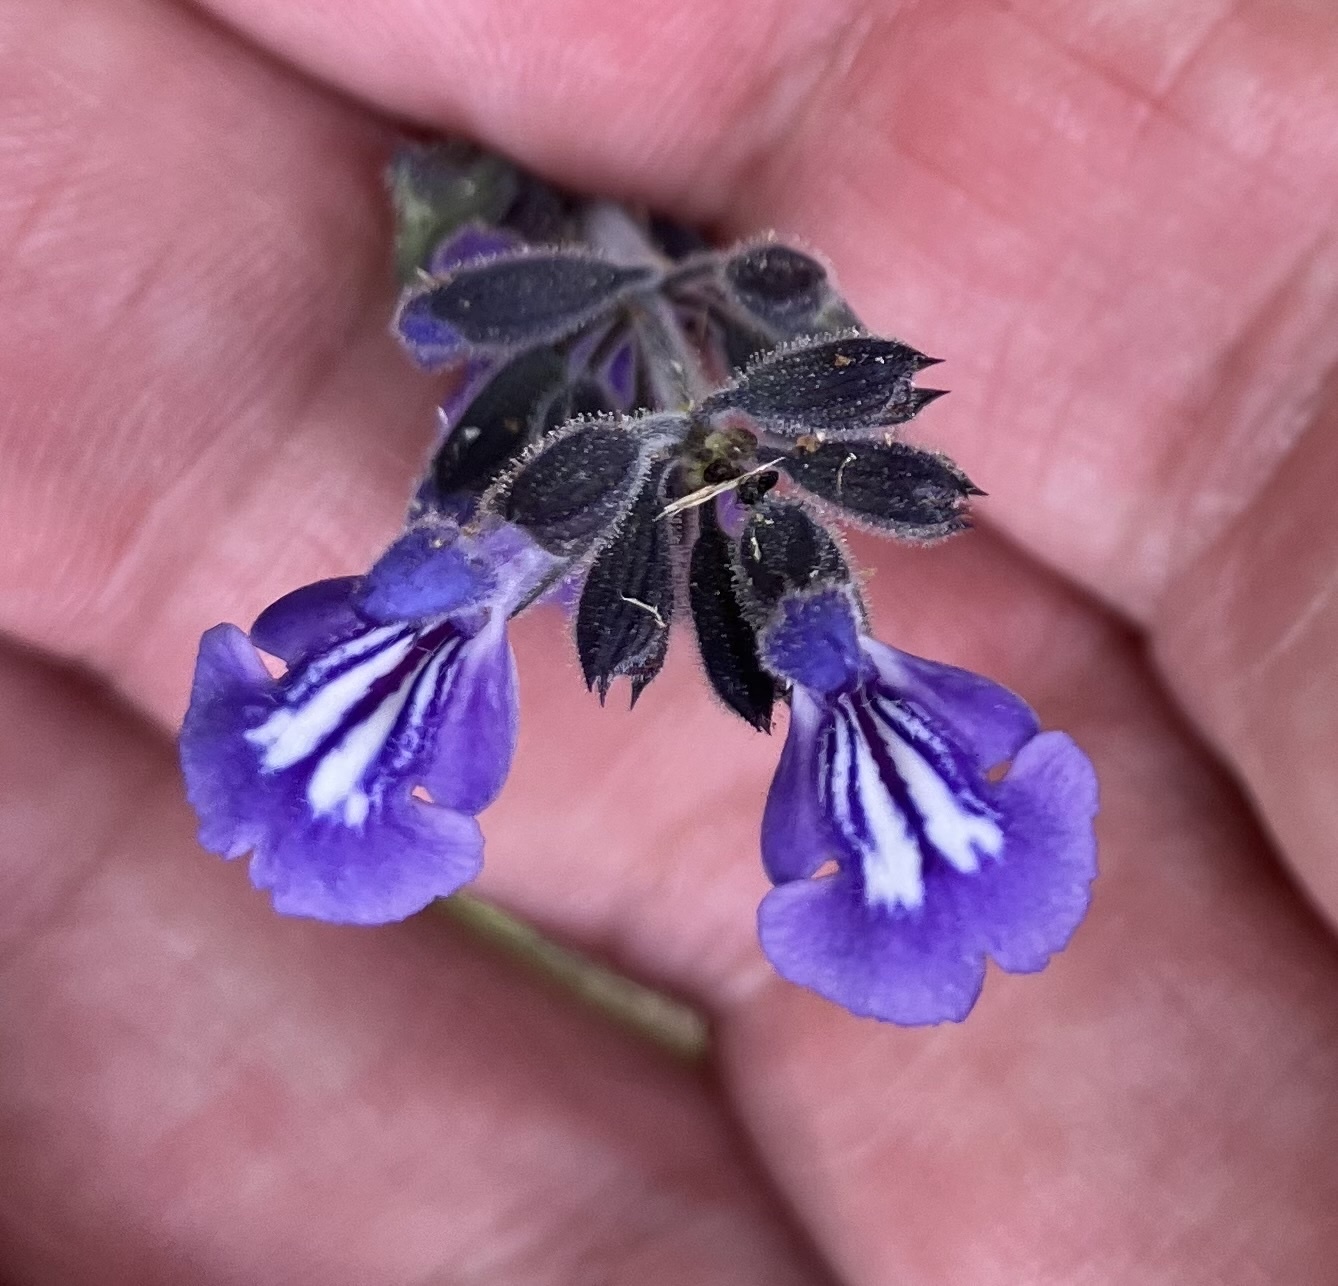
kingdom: Plantae
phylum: Tracheophyta
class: Magnoliopsida
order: Lamiales
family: Lamiaceae
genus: Salvia
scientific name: Salvia urticifolia
